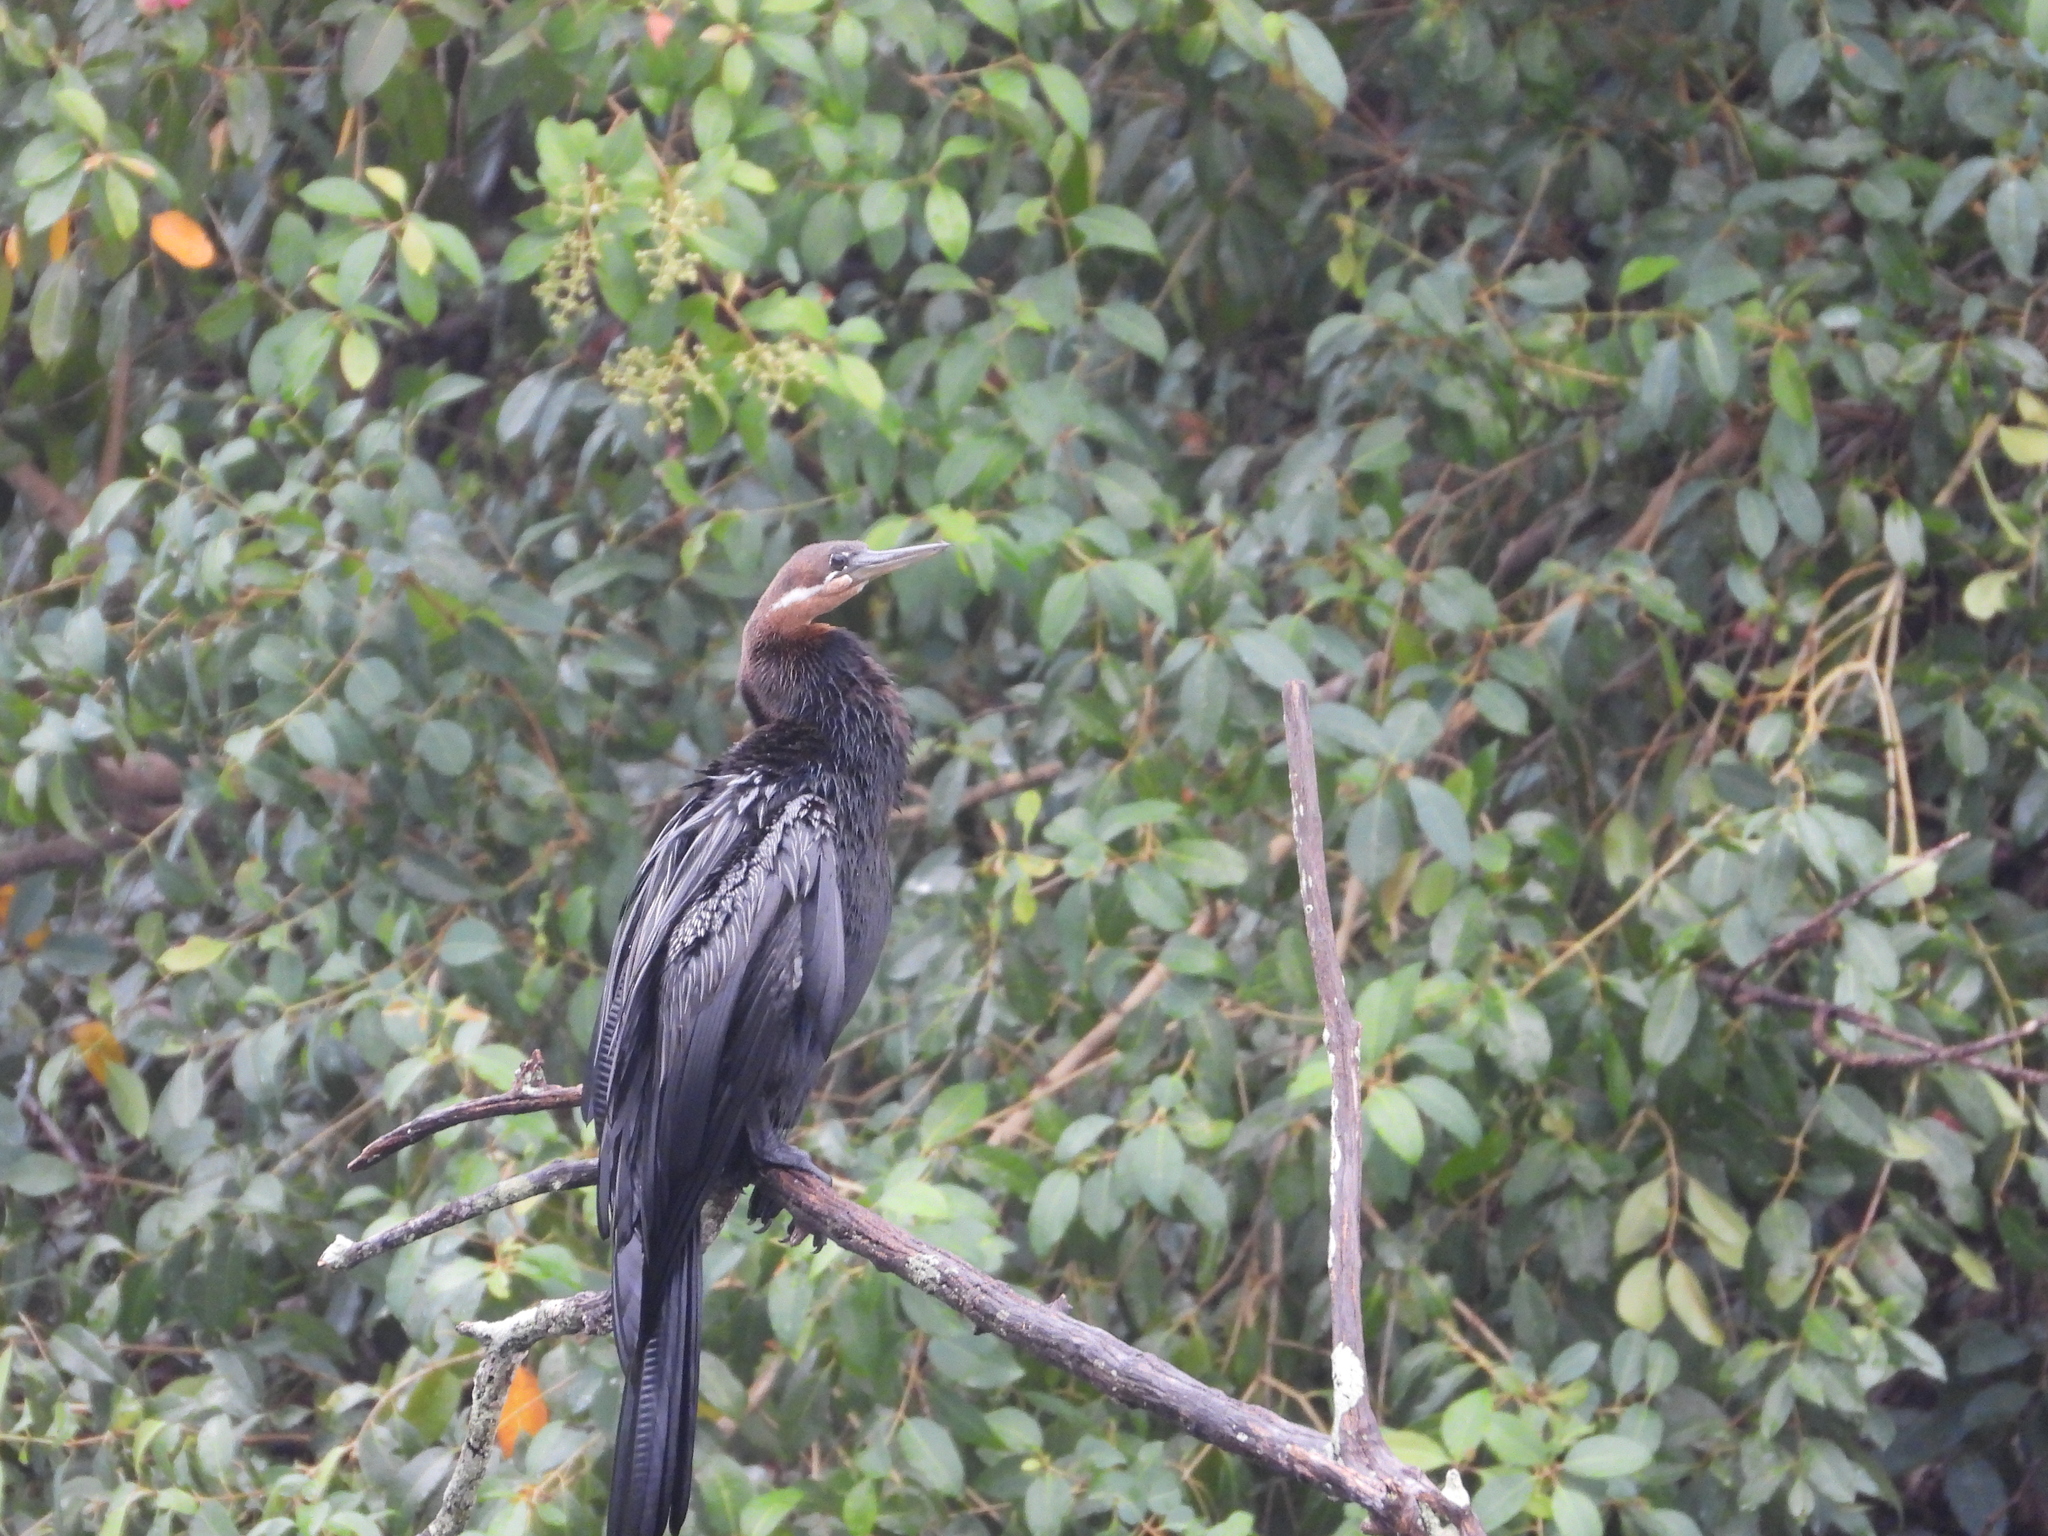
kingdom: Animalia
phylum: Chordata
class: Aves
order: Suliformes
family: Anhingidae
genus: Anhinga
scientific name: Anhinga rufa
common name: African darter
